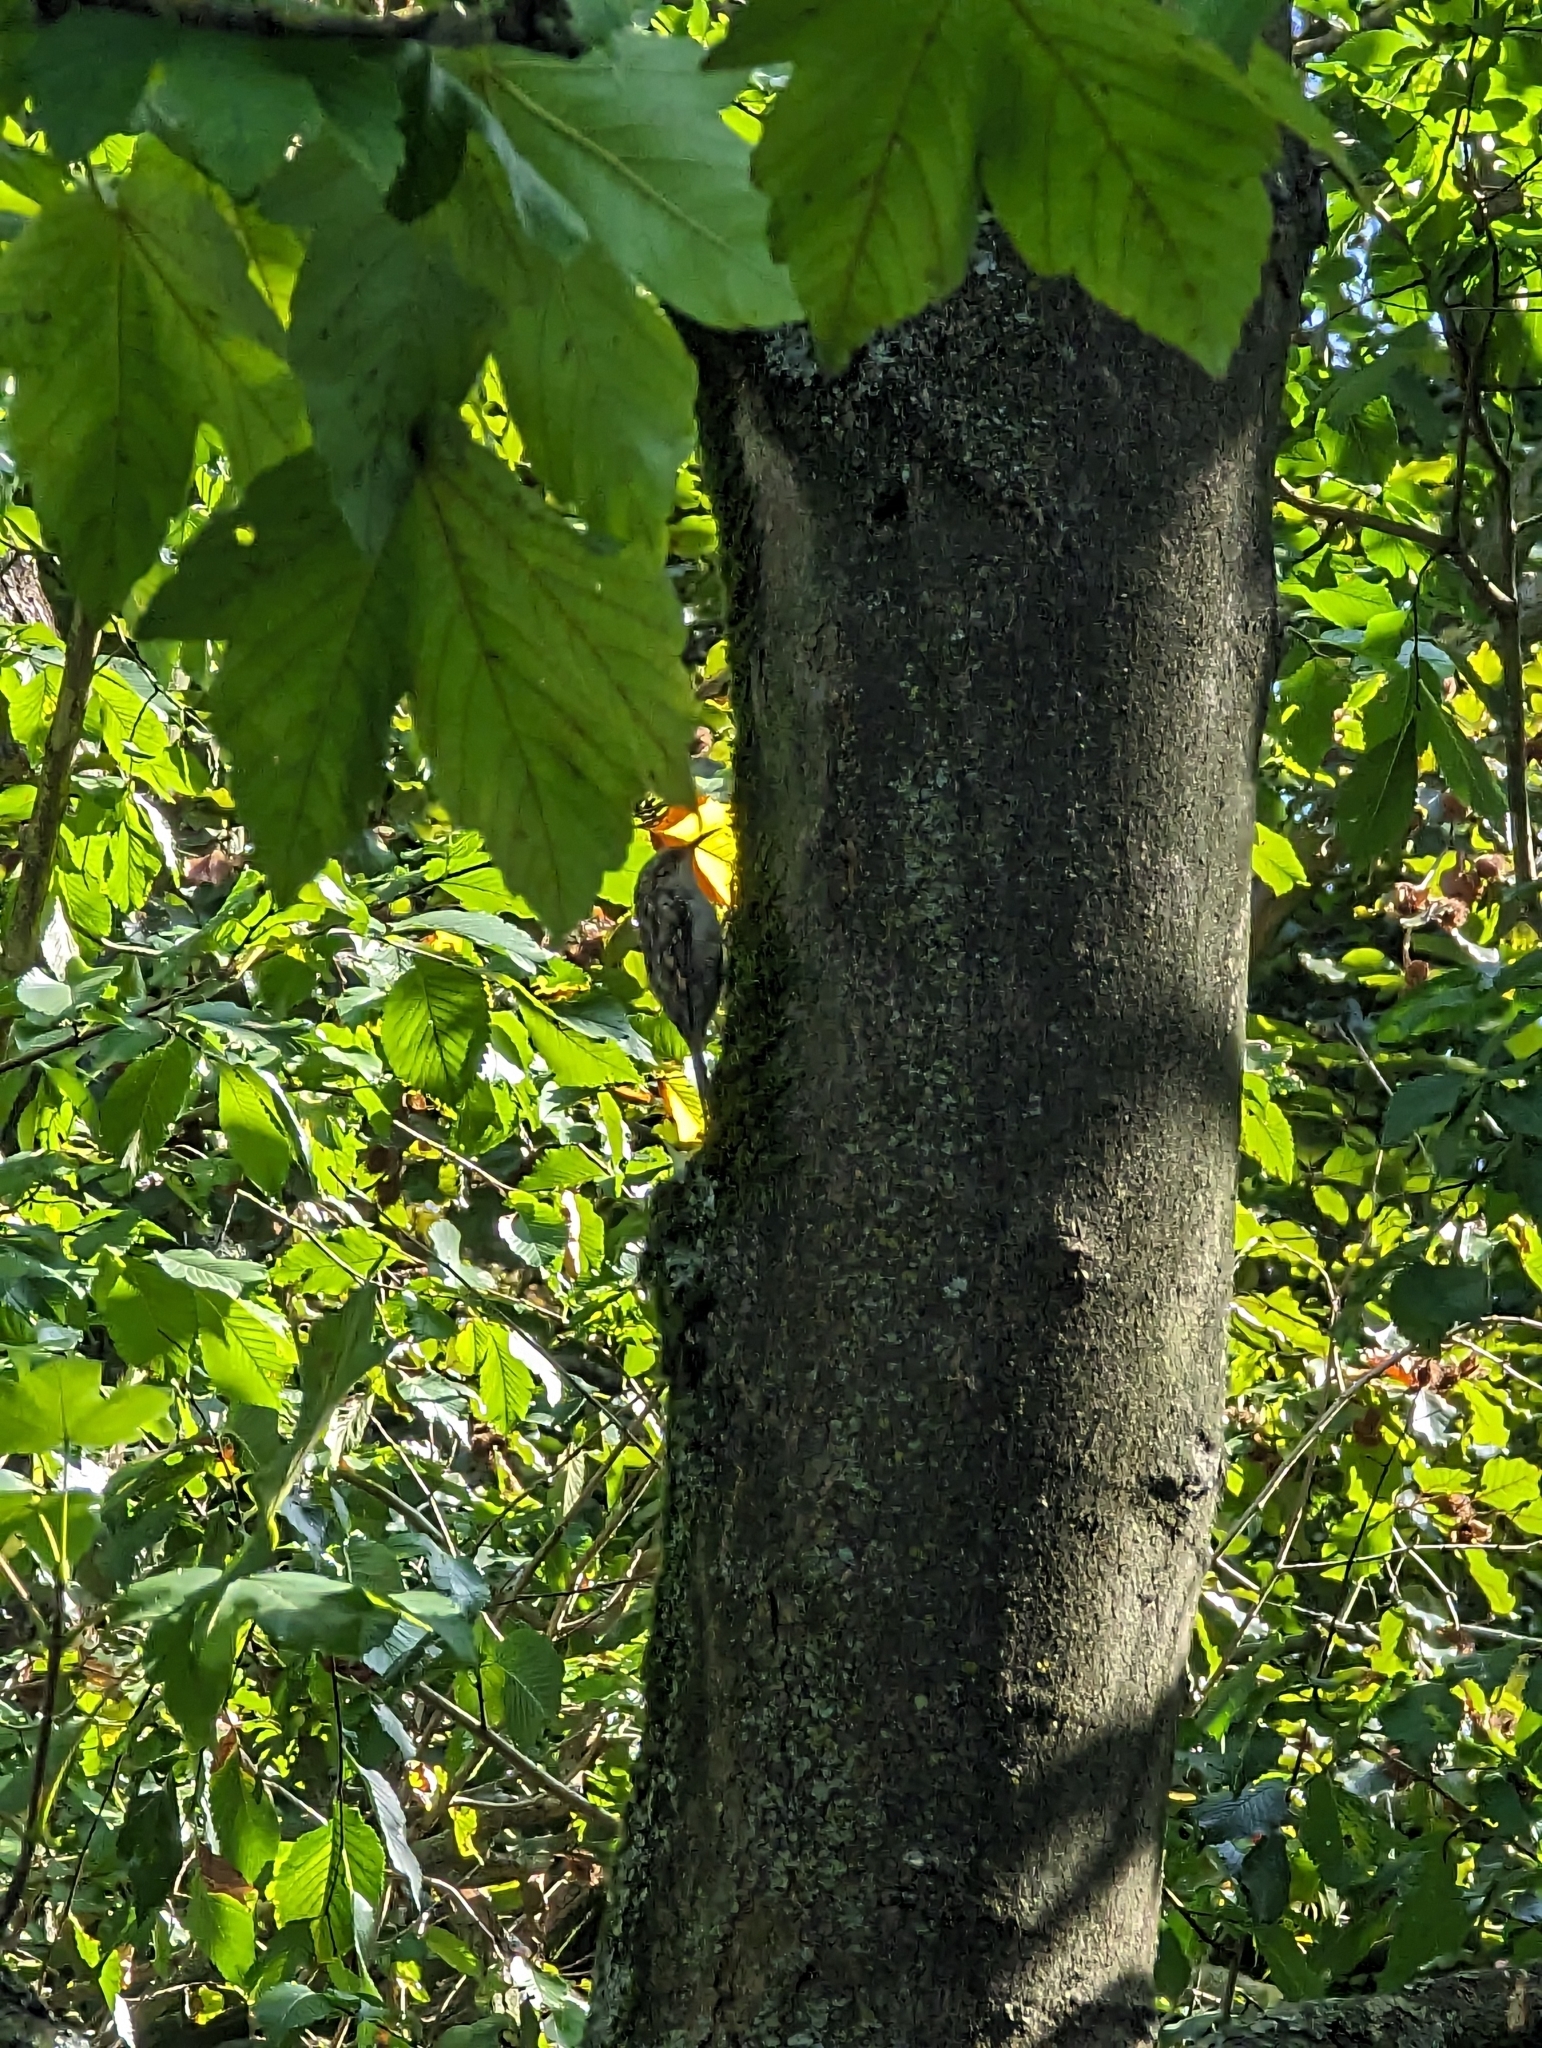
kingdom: Animalia
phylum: Chordata
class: Aves
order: Passeriformes
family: Certhiidae
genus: Certhia
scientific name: Certhia brachydactyla
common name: Short-toed treecreeper
